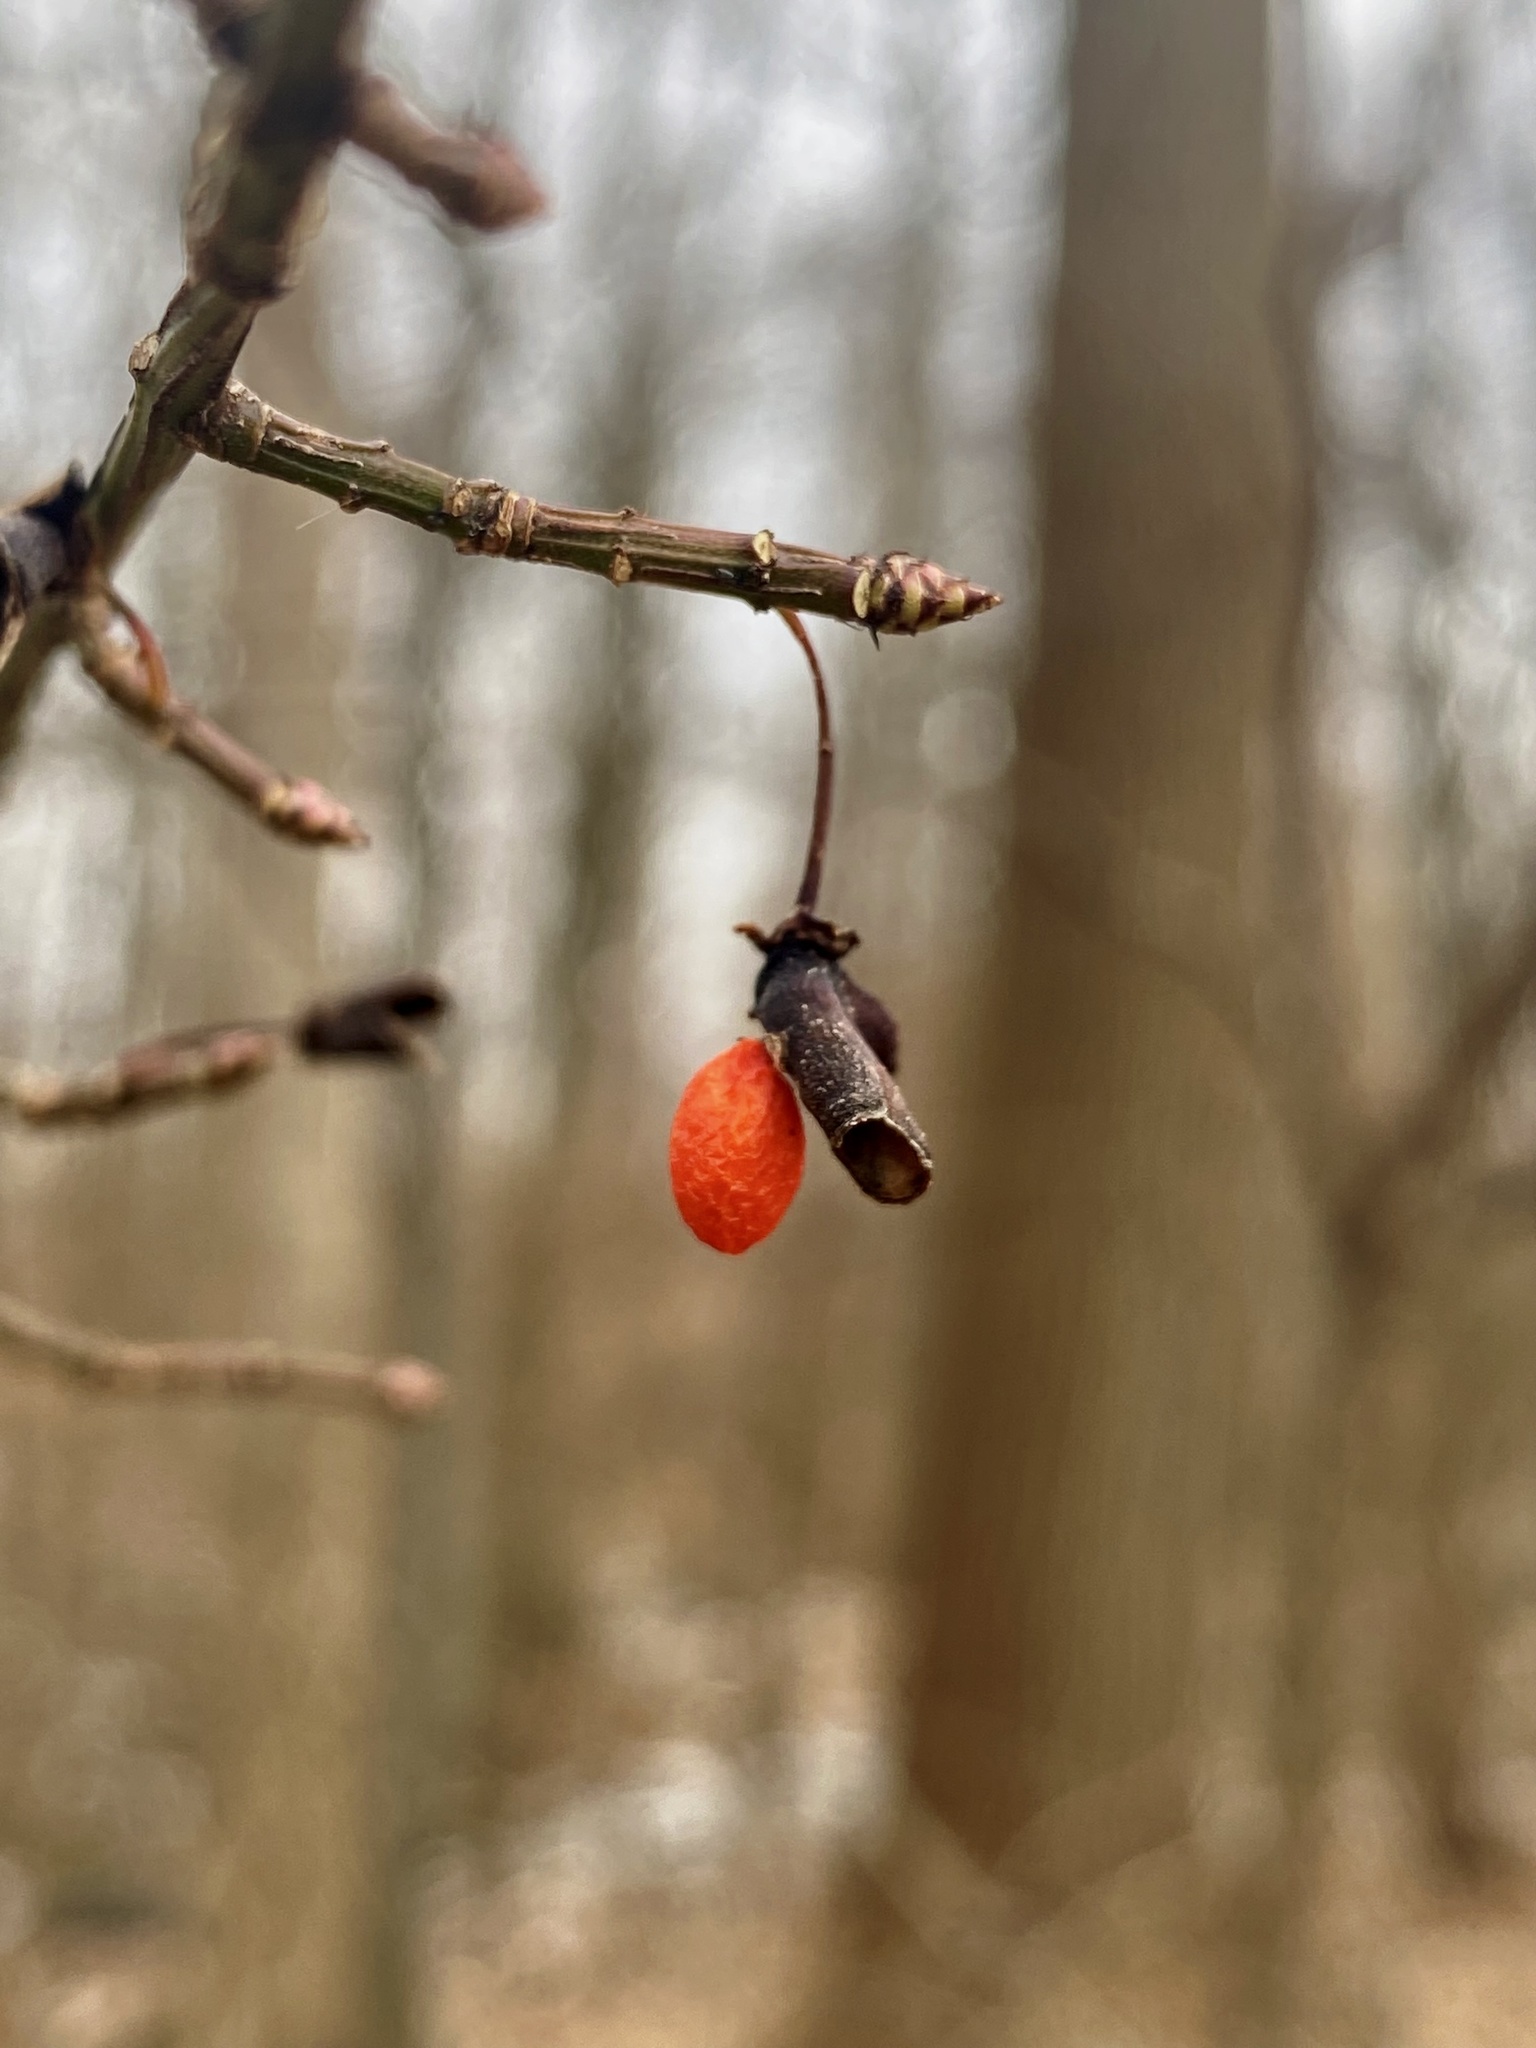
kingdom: Plantae
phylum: Tracheophyta
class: Magnoliopsida
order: Celastrales
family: Celastraceae
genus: Euonymus
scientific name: Euonymus alatus
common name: Winged euonymus
